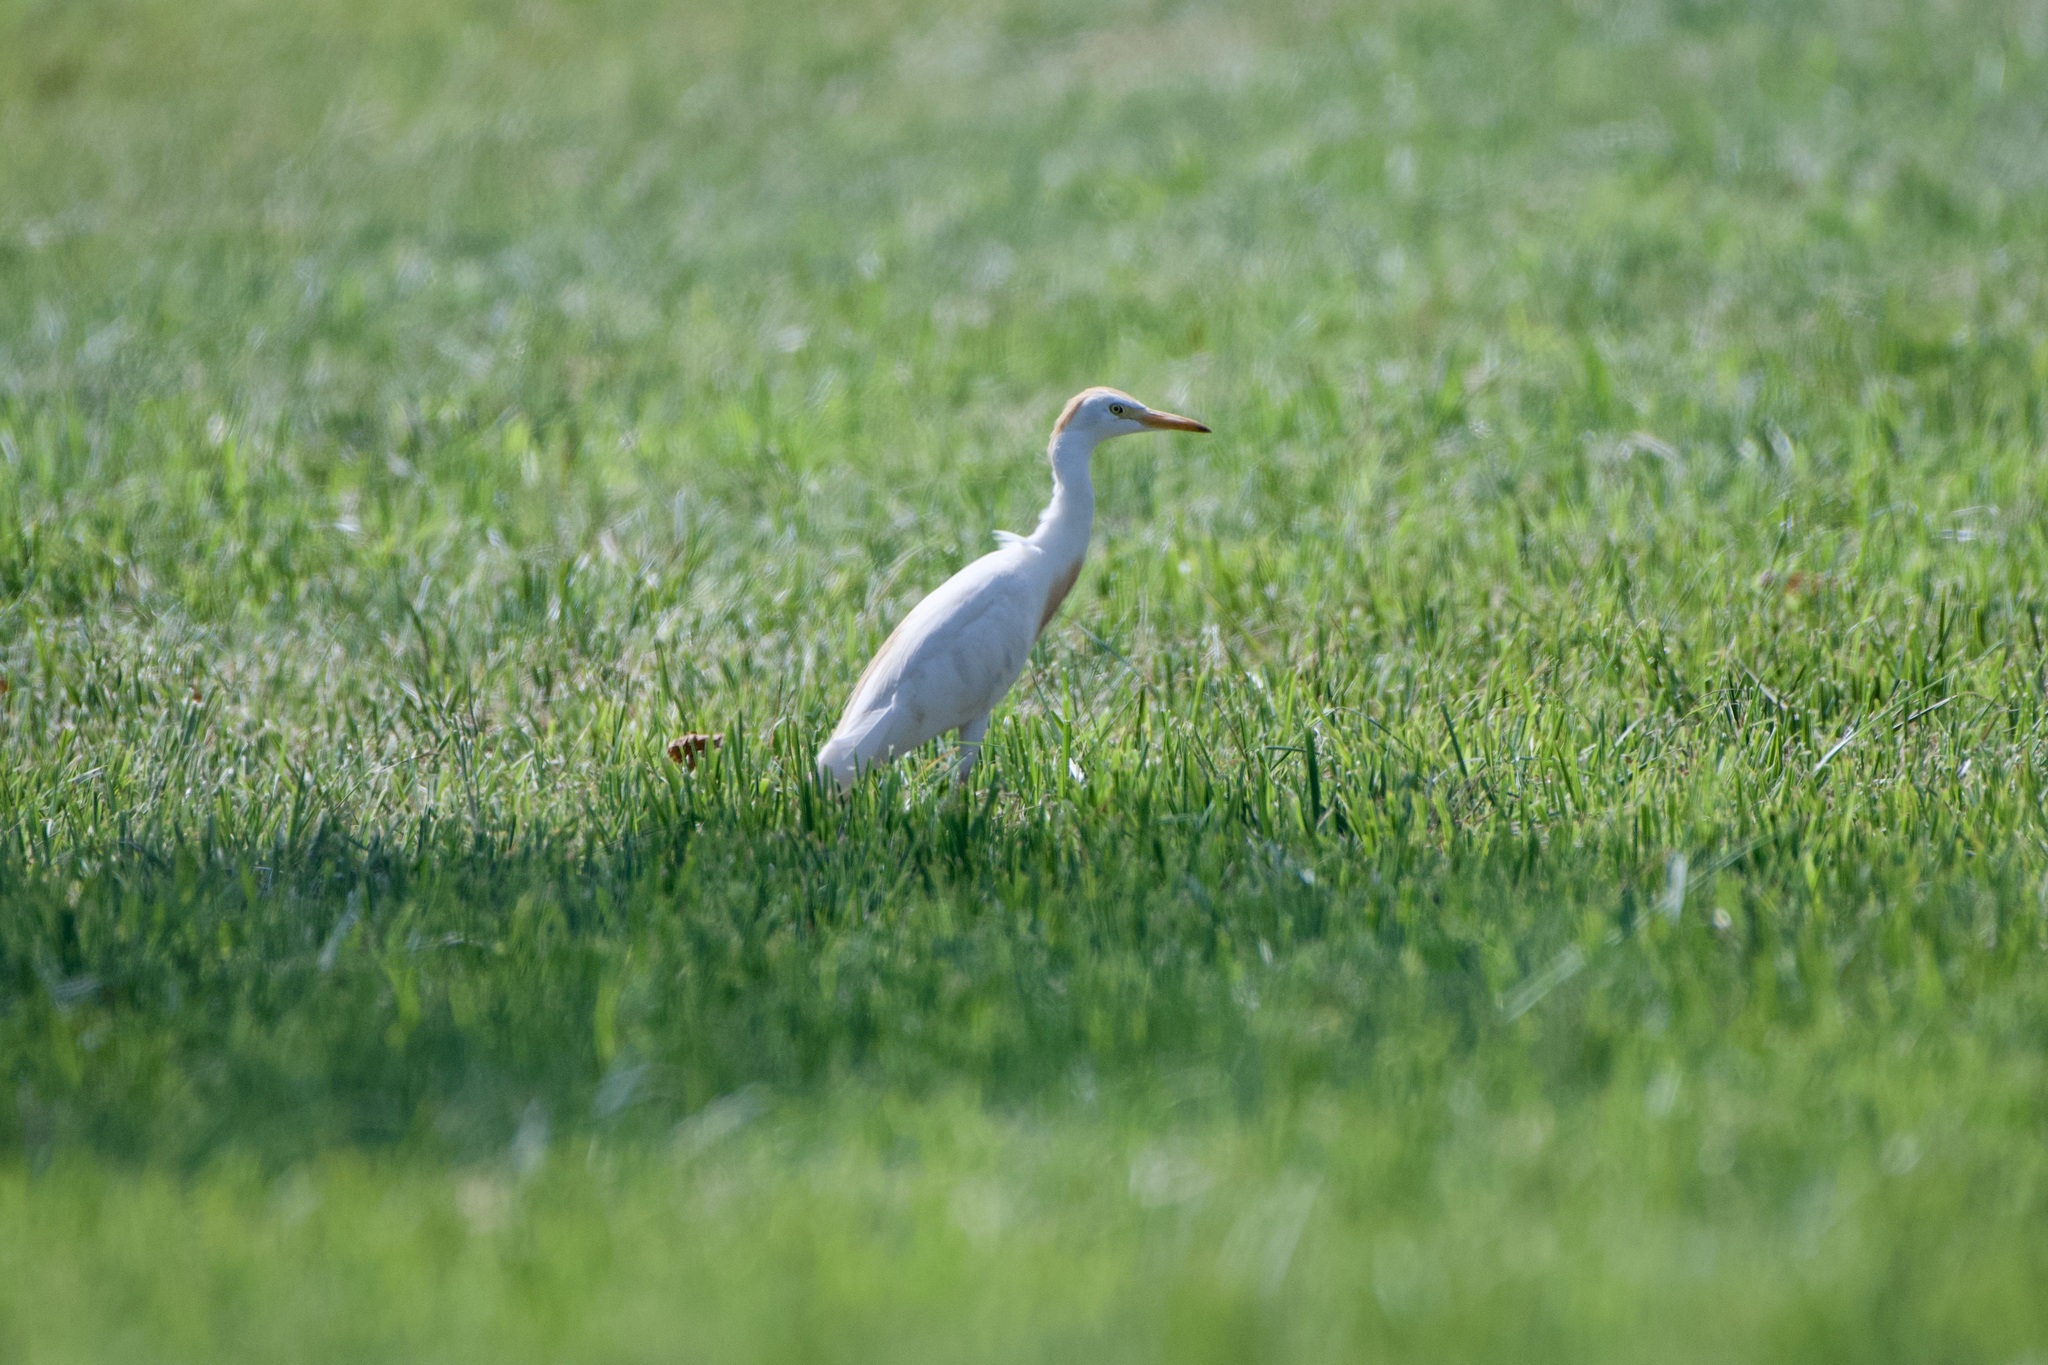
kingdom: Animalia
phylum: Chordata
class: Aves
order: Pelecaniformes
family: Ardeidae
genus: Bubulcus
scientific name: Bubulcus ibis
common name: Cattle egret
